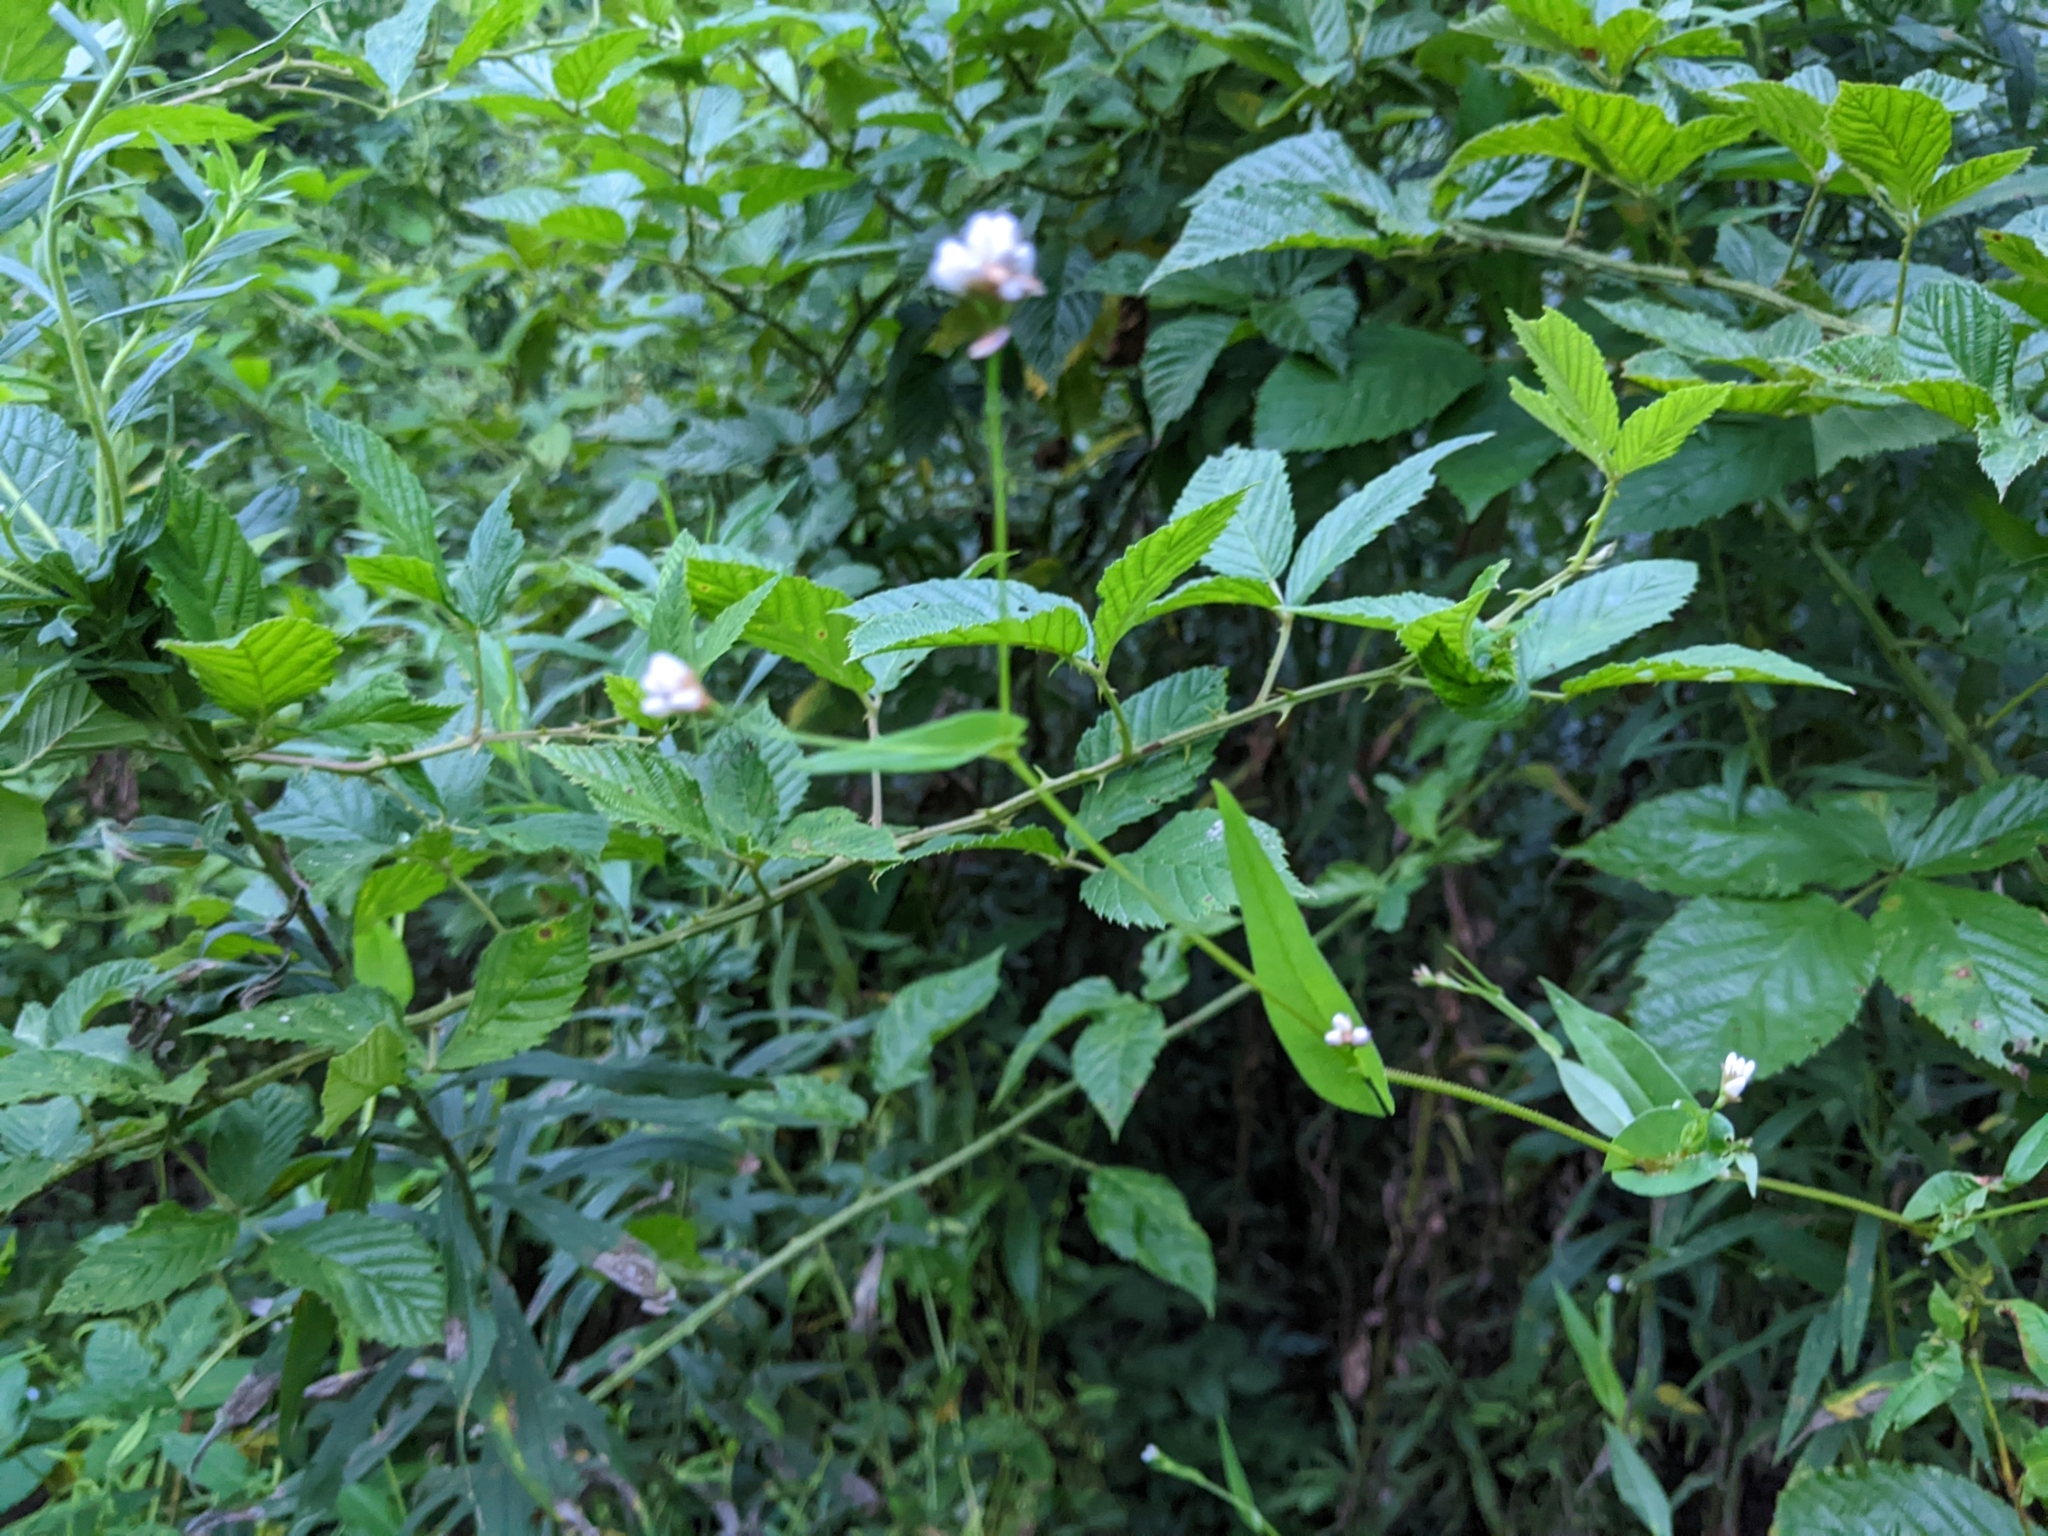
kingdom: Plantae
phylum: Tracheophyta
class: Magnoliopsida
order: Caryophyllales
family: Polygonaceae
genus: Persicaria
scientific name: Persicaria sagittata
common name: American tearthumb
